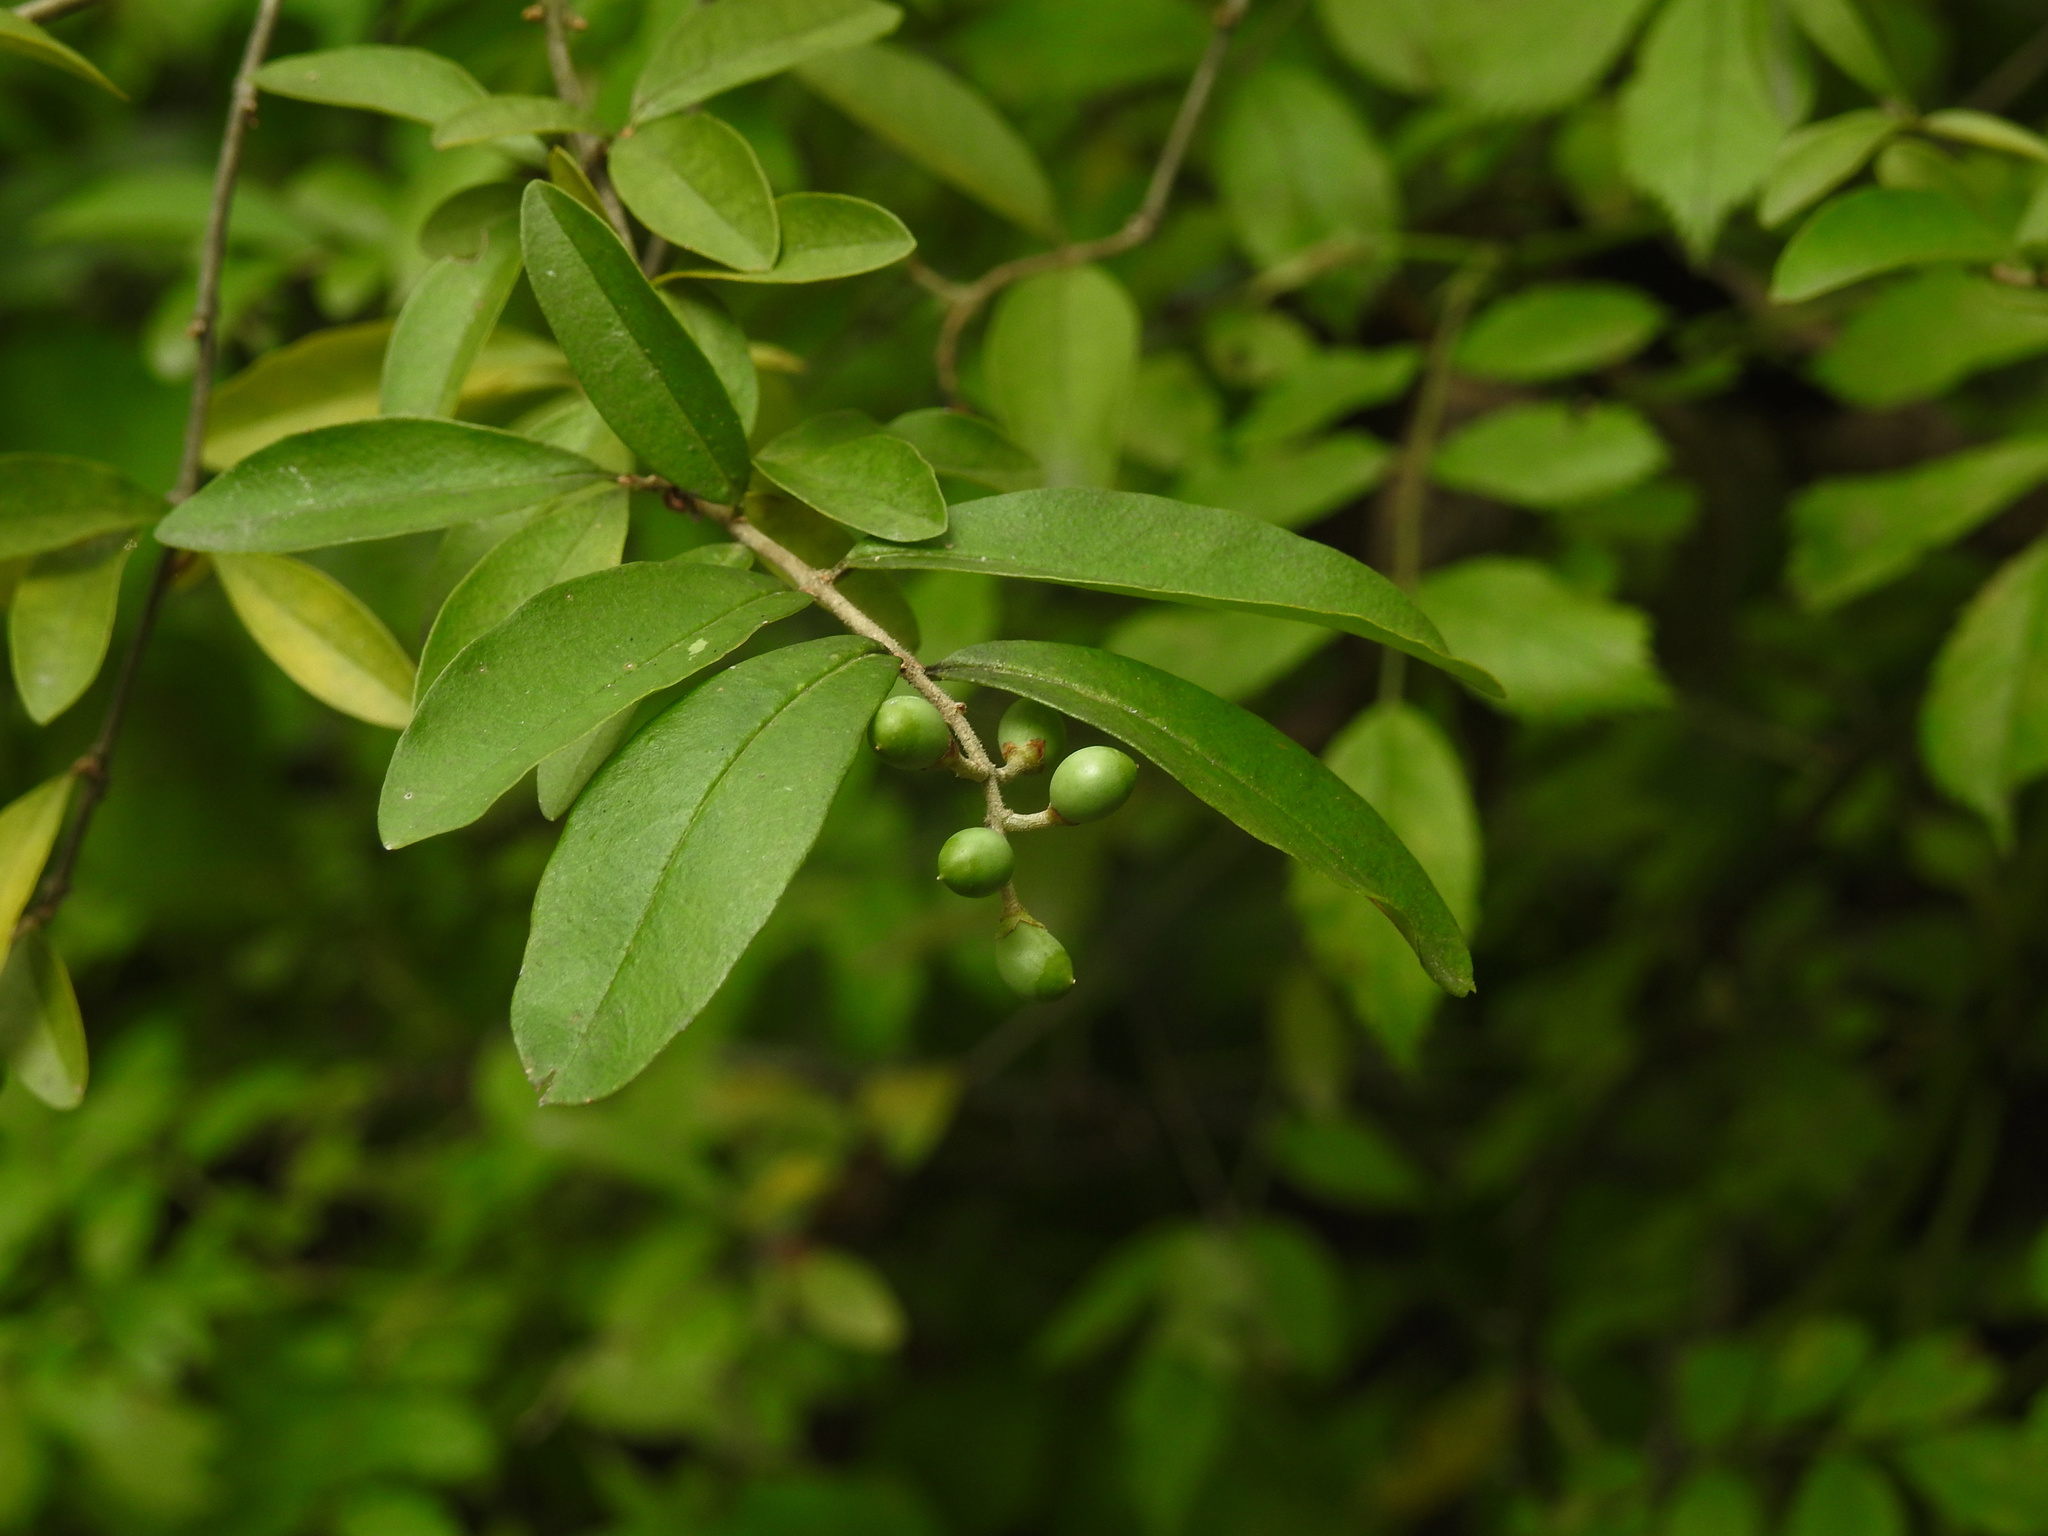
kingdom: Plantae
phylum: Tracheophyta
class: Magnoliopsida
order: Lamiales
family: Oleaceae
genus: Ligustrum
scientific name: Ligustrum obtusifolium
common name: Border privet
